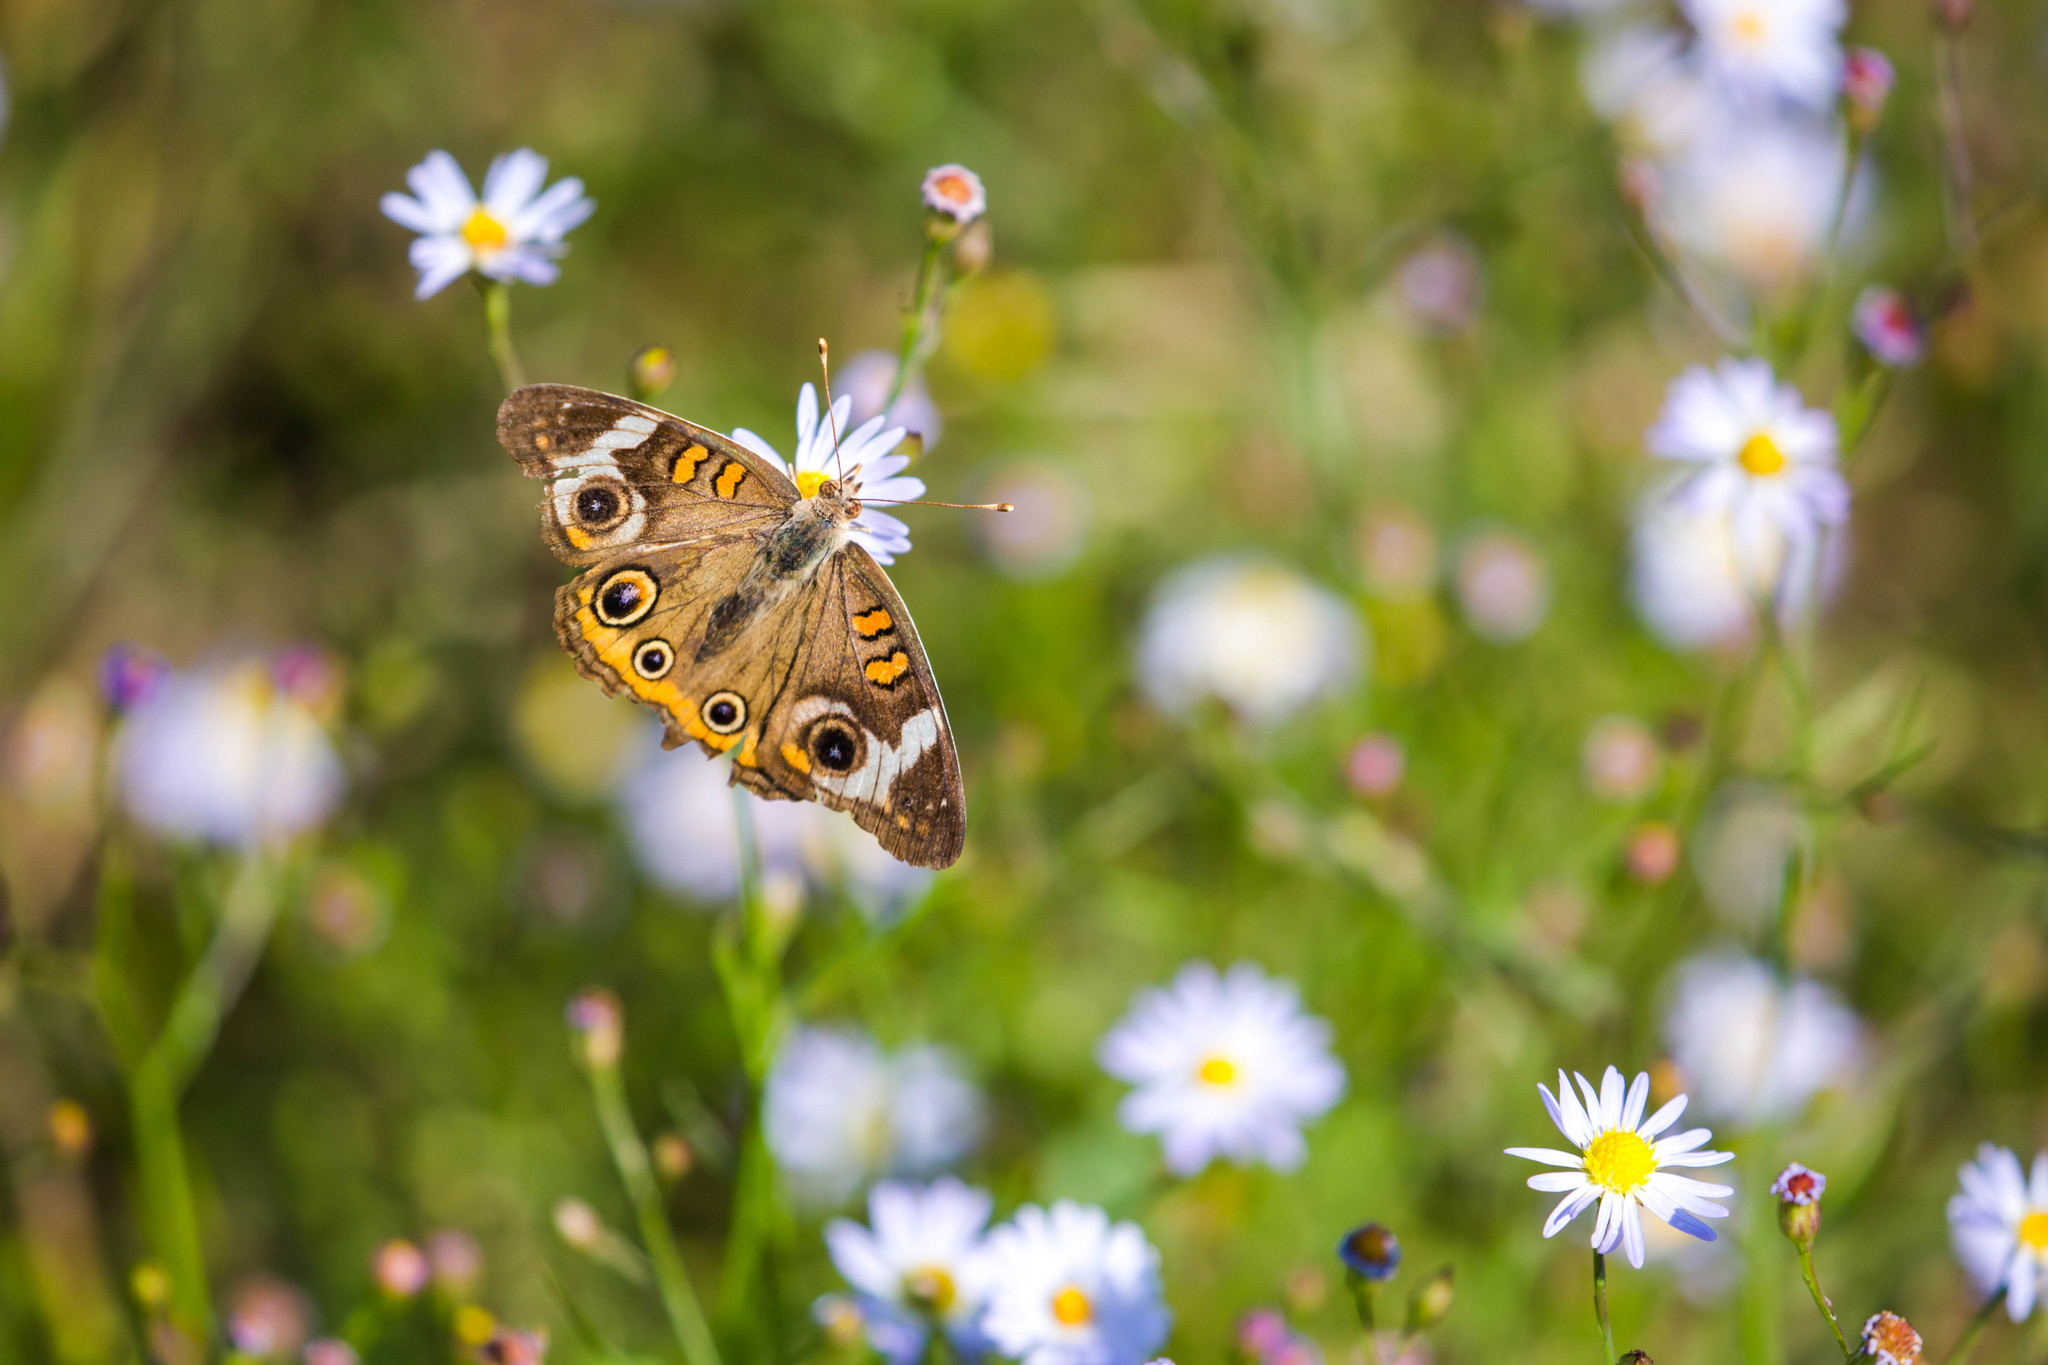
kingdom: Animalia
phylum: Arthropoda
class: Insecta
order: Lepidoptera
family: Nymphalidae
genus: Junonia
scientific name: Junonia coenia
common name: Common buckeye
